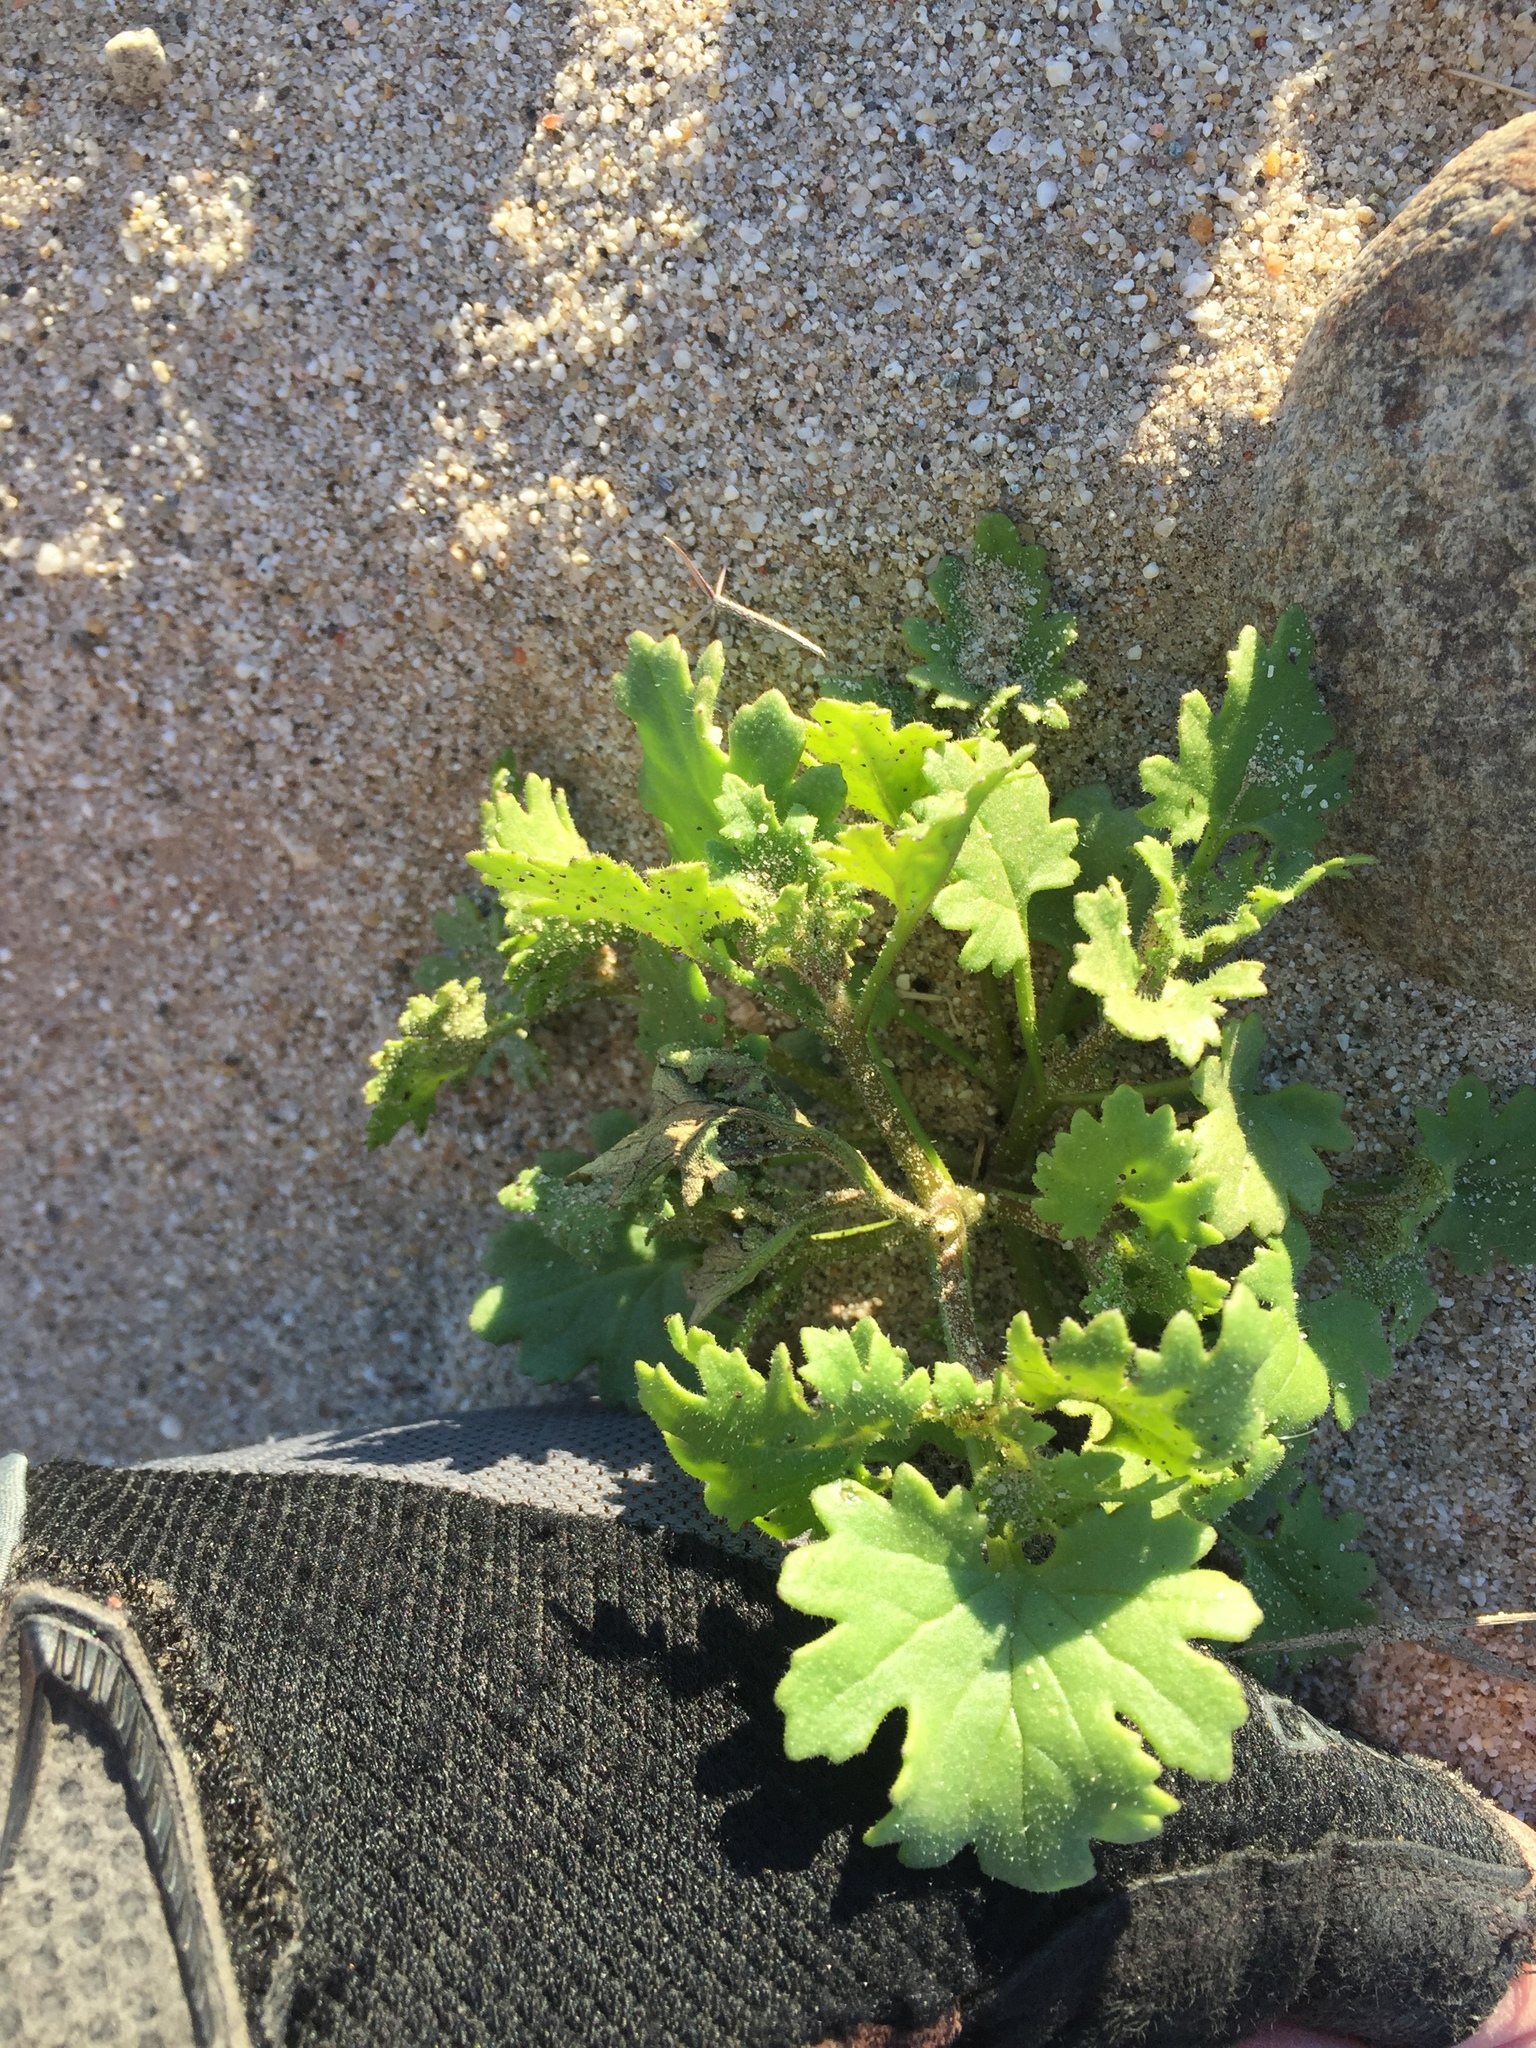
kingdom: Plantae
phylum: Tracheophyta
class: Magnoliopsida
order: Asterales
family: Asteraceae
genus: Laphamia
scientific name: Laphamia emoryi
